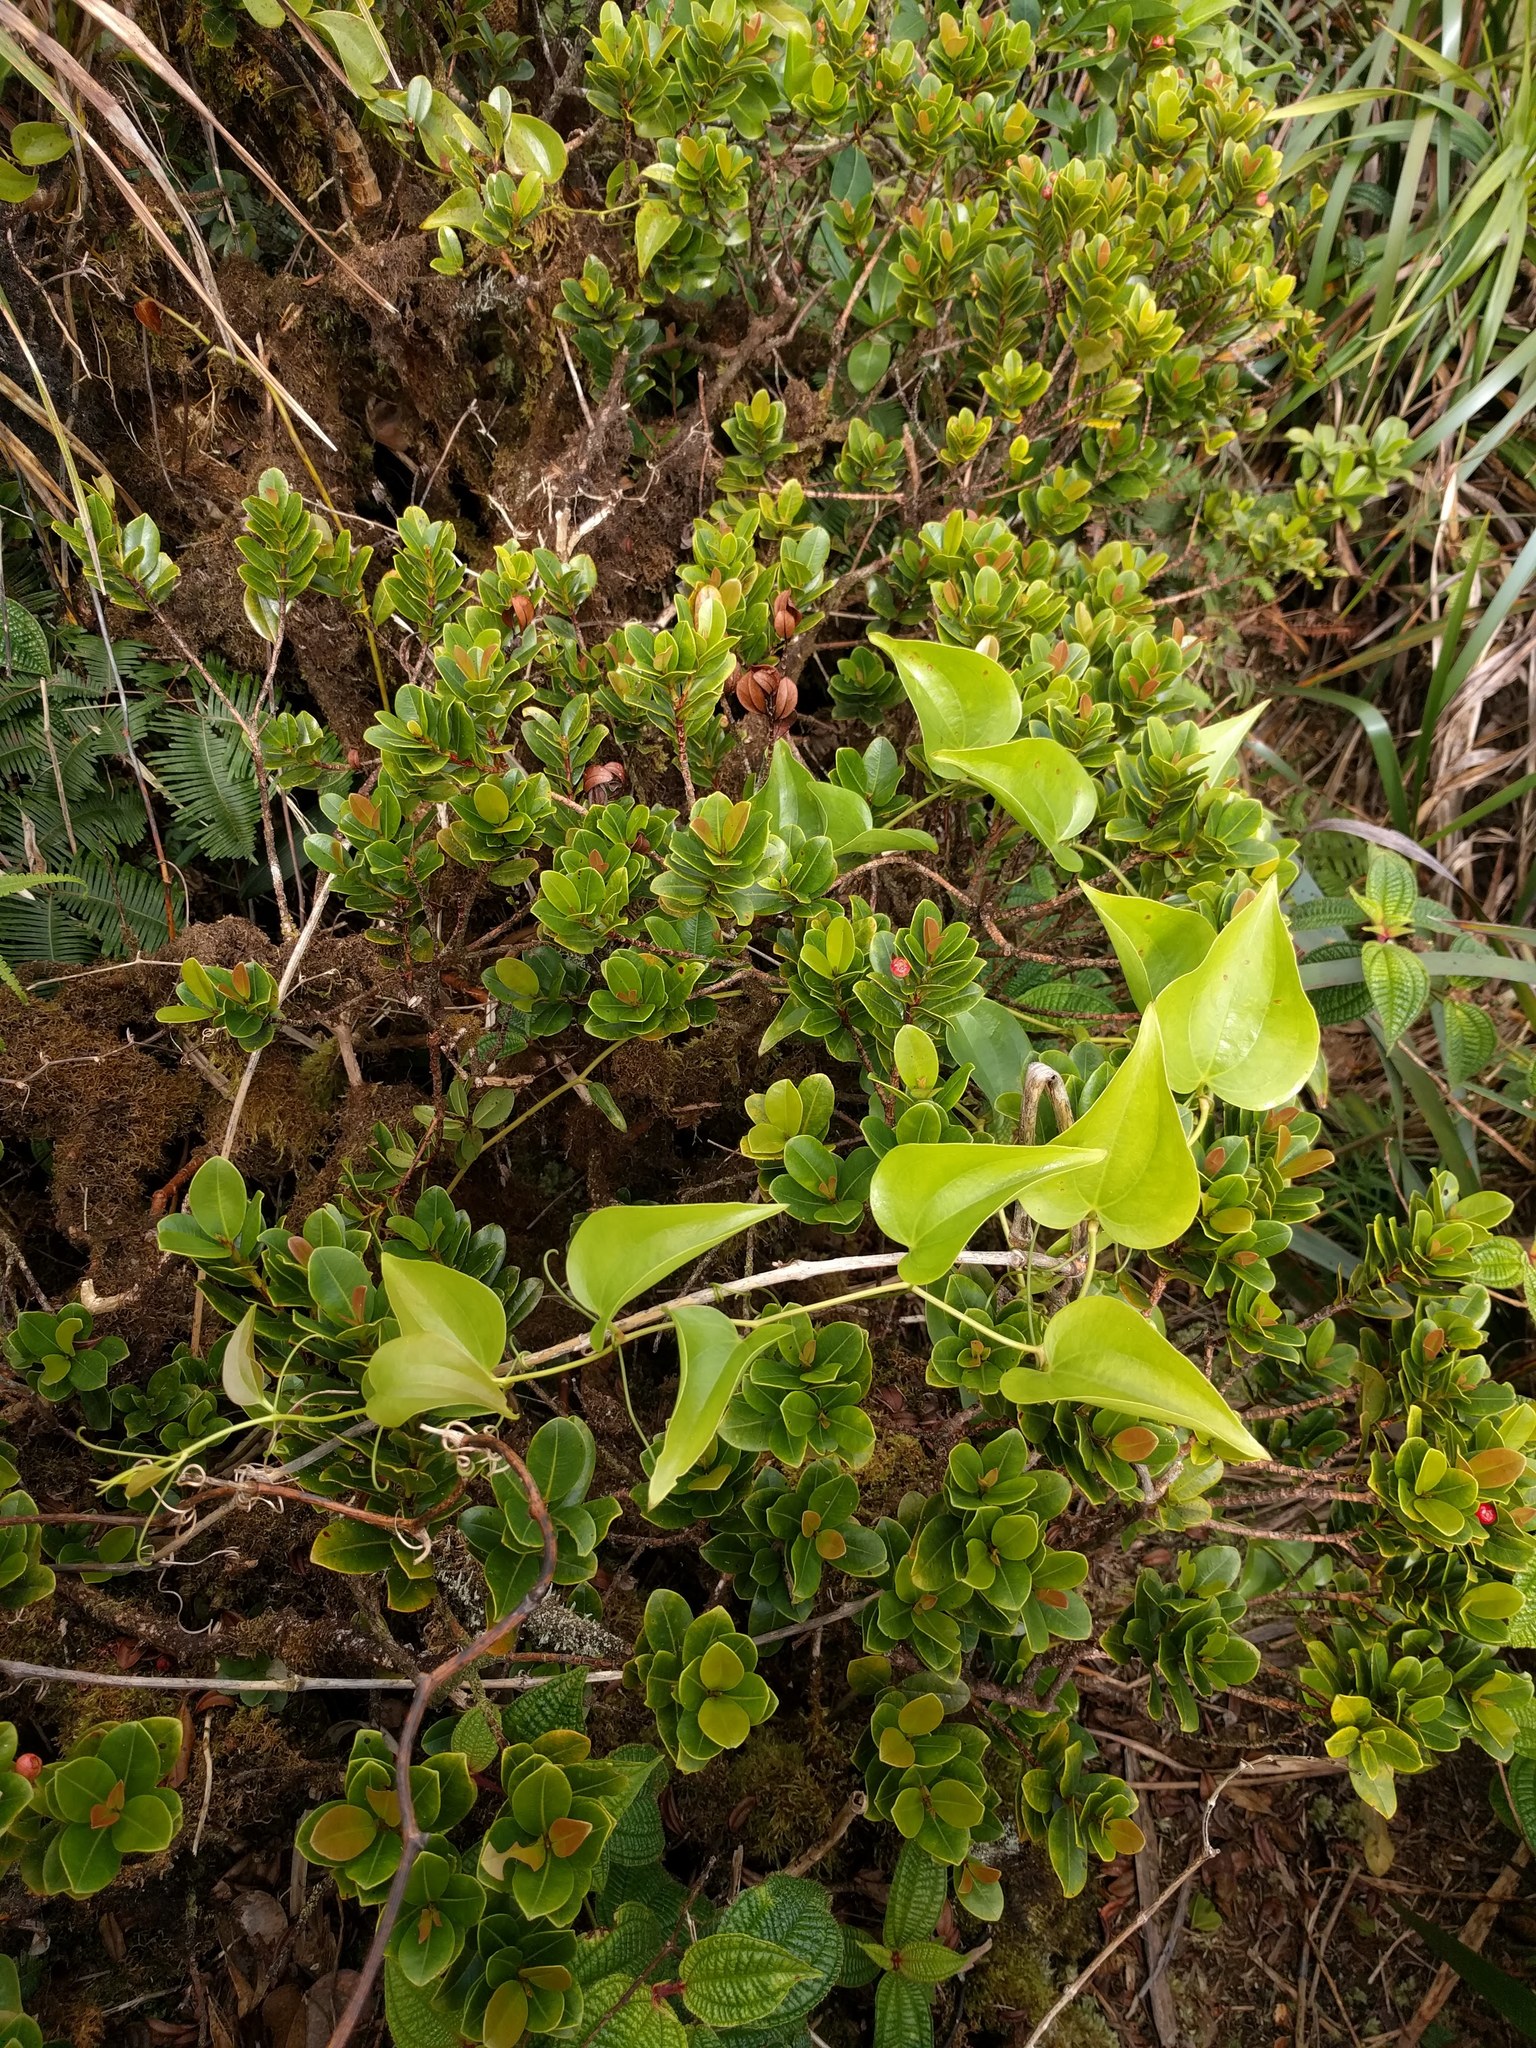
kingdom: Plantae
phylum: Tracheophyta
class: Liliopsida
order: Liliales
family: Smilacaceae
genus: Smilax
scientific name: Smilax melastomifolia
